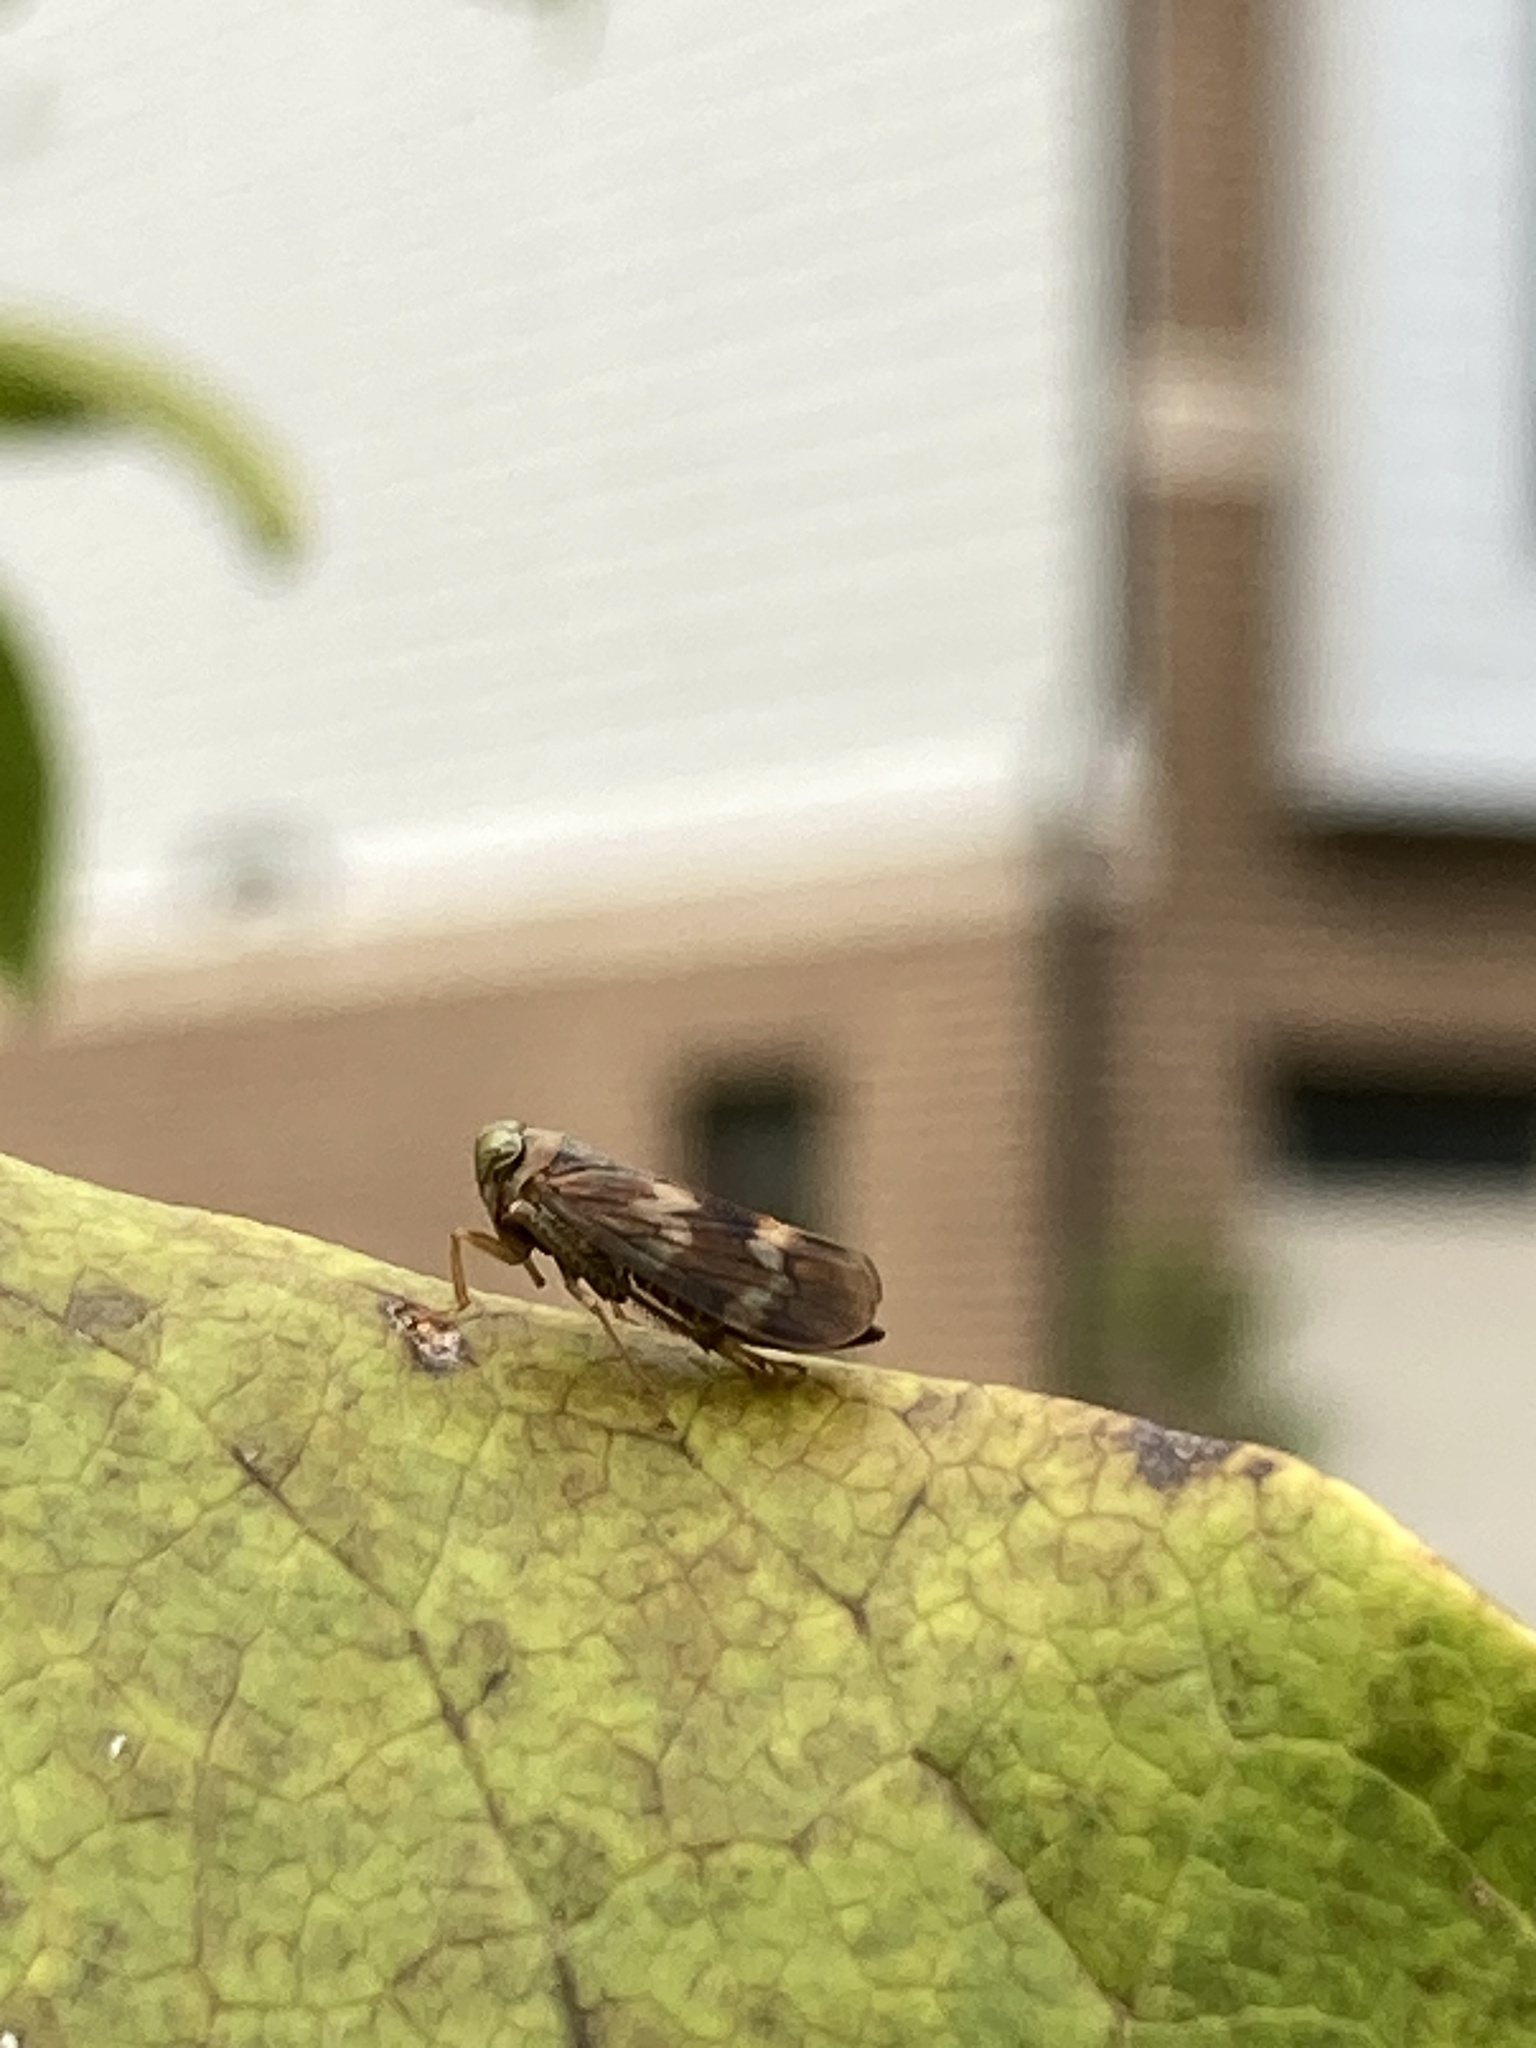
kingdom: Animalia
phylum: Arthropoda
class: Insecta
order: Hemiptera
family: Cicadellidae
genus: Jikradia
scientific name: Jikradia olitoria
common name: Coppery leafhopper
